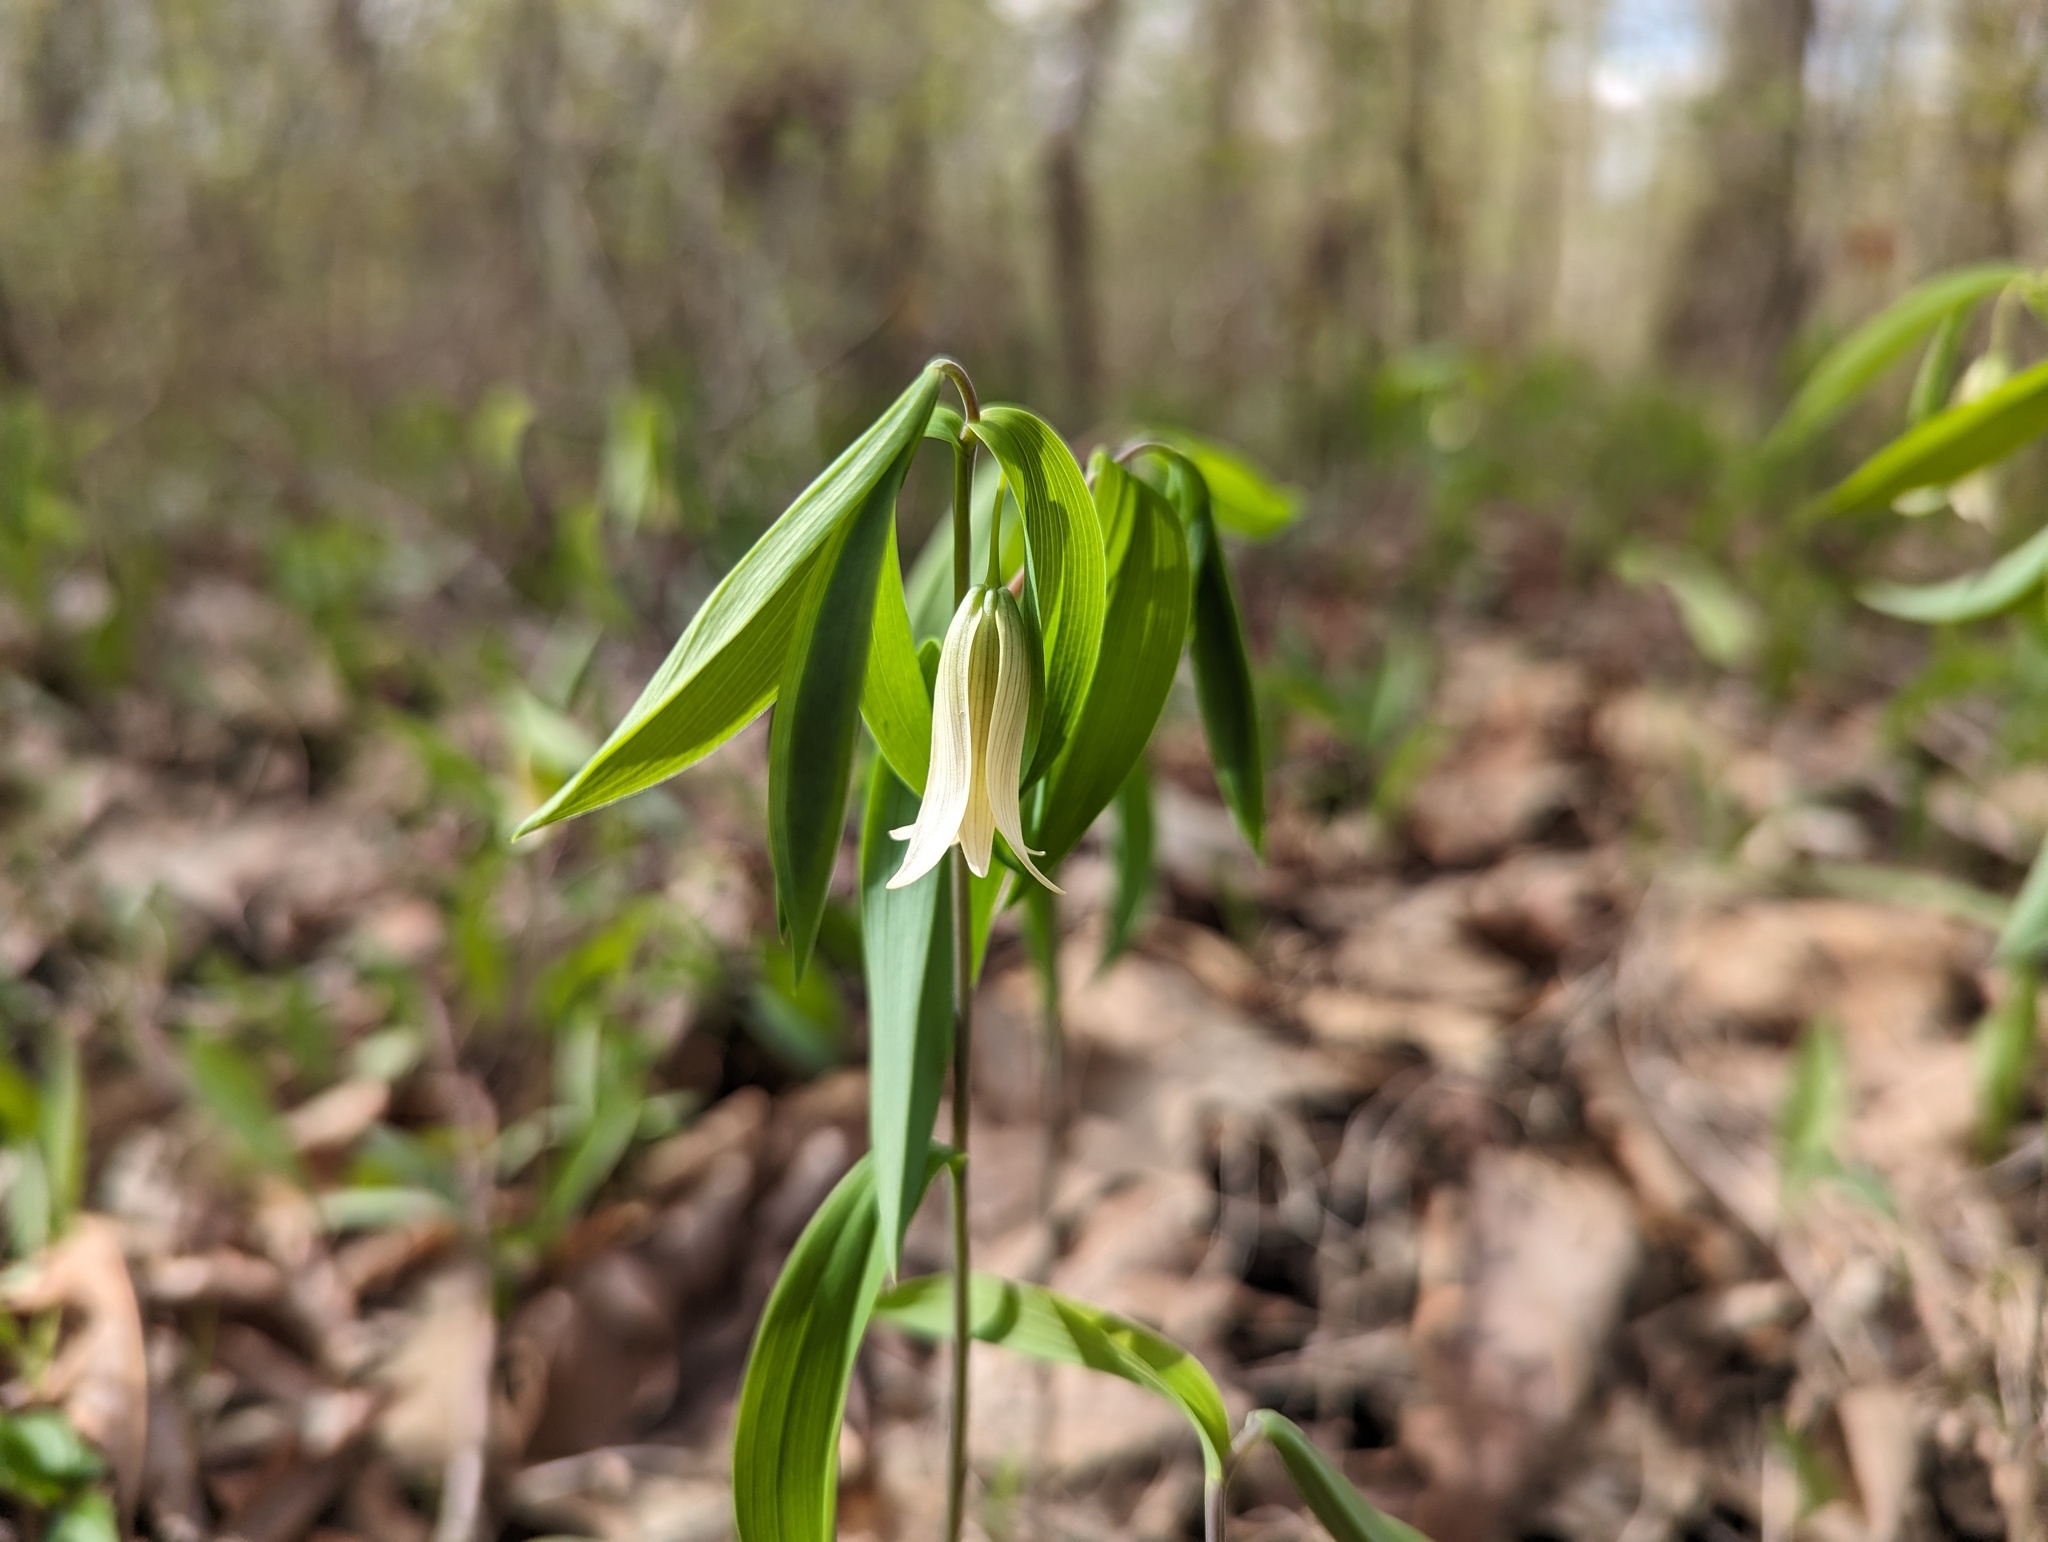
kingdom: Plantae
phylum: Tracheophyta
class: Liliopsida
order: Liliales
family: Colchicaceae
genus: Uvularia
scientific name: Uvularia sessilifolia
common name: Straw-lily
